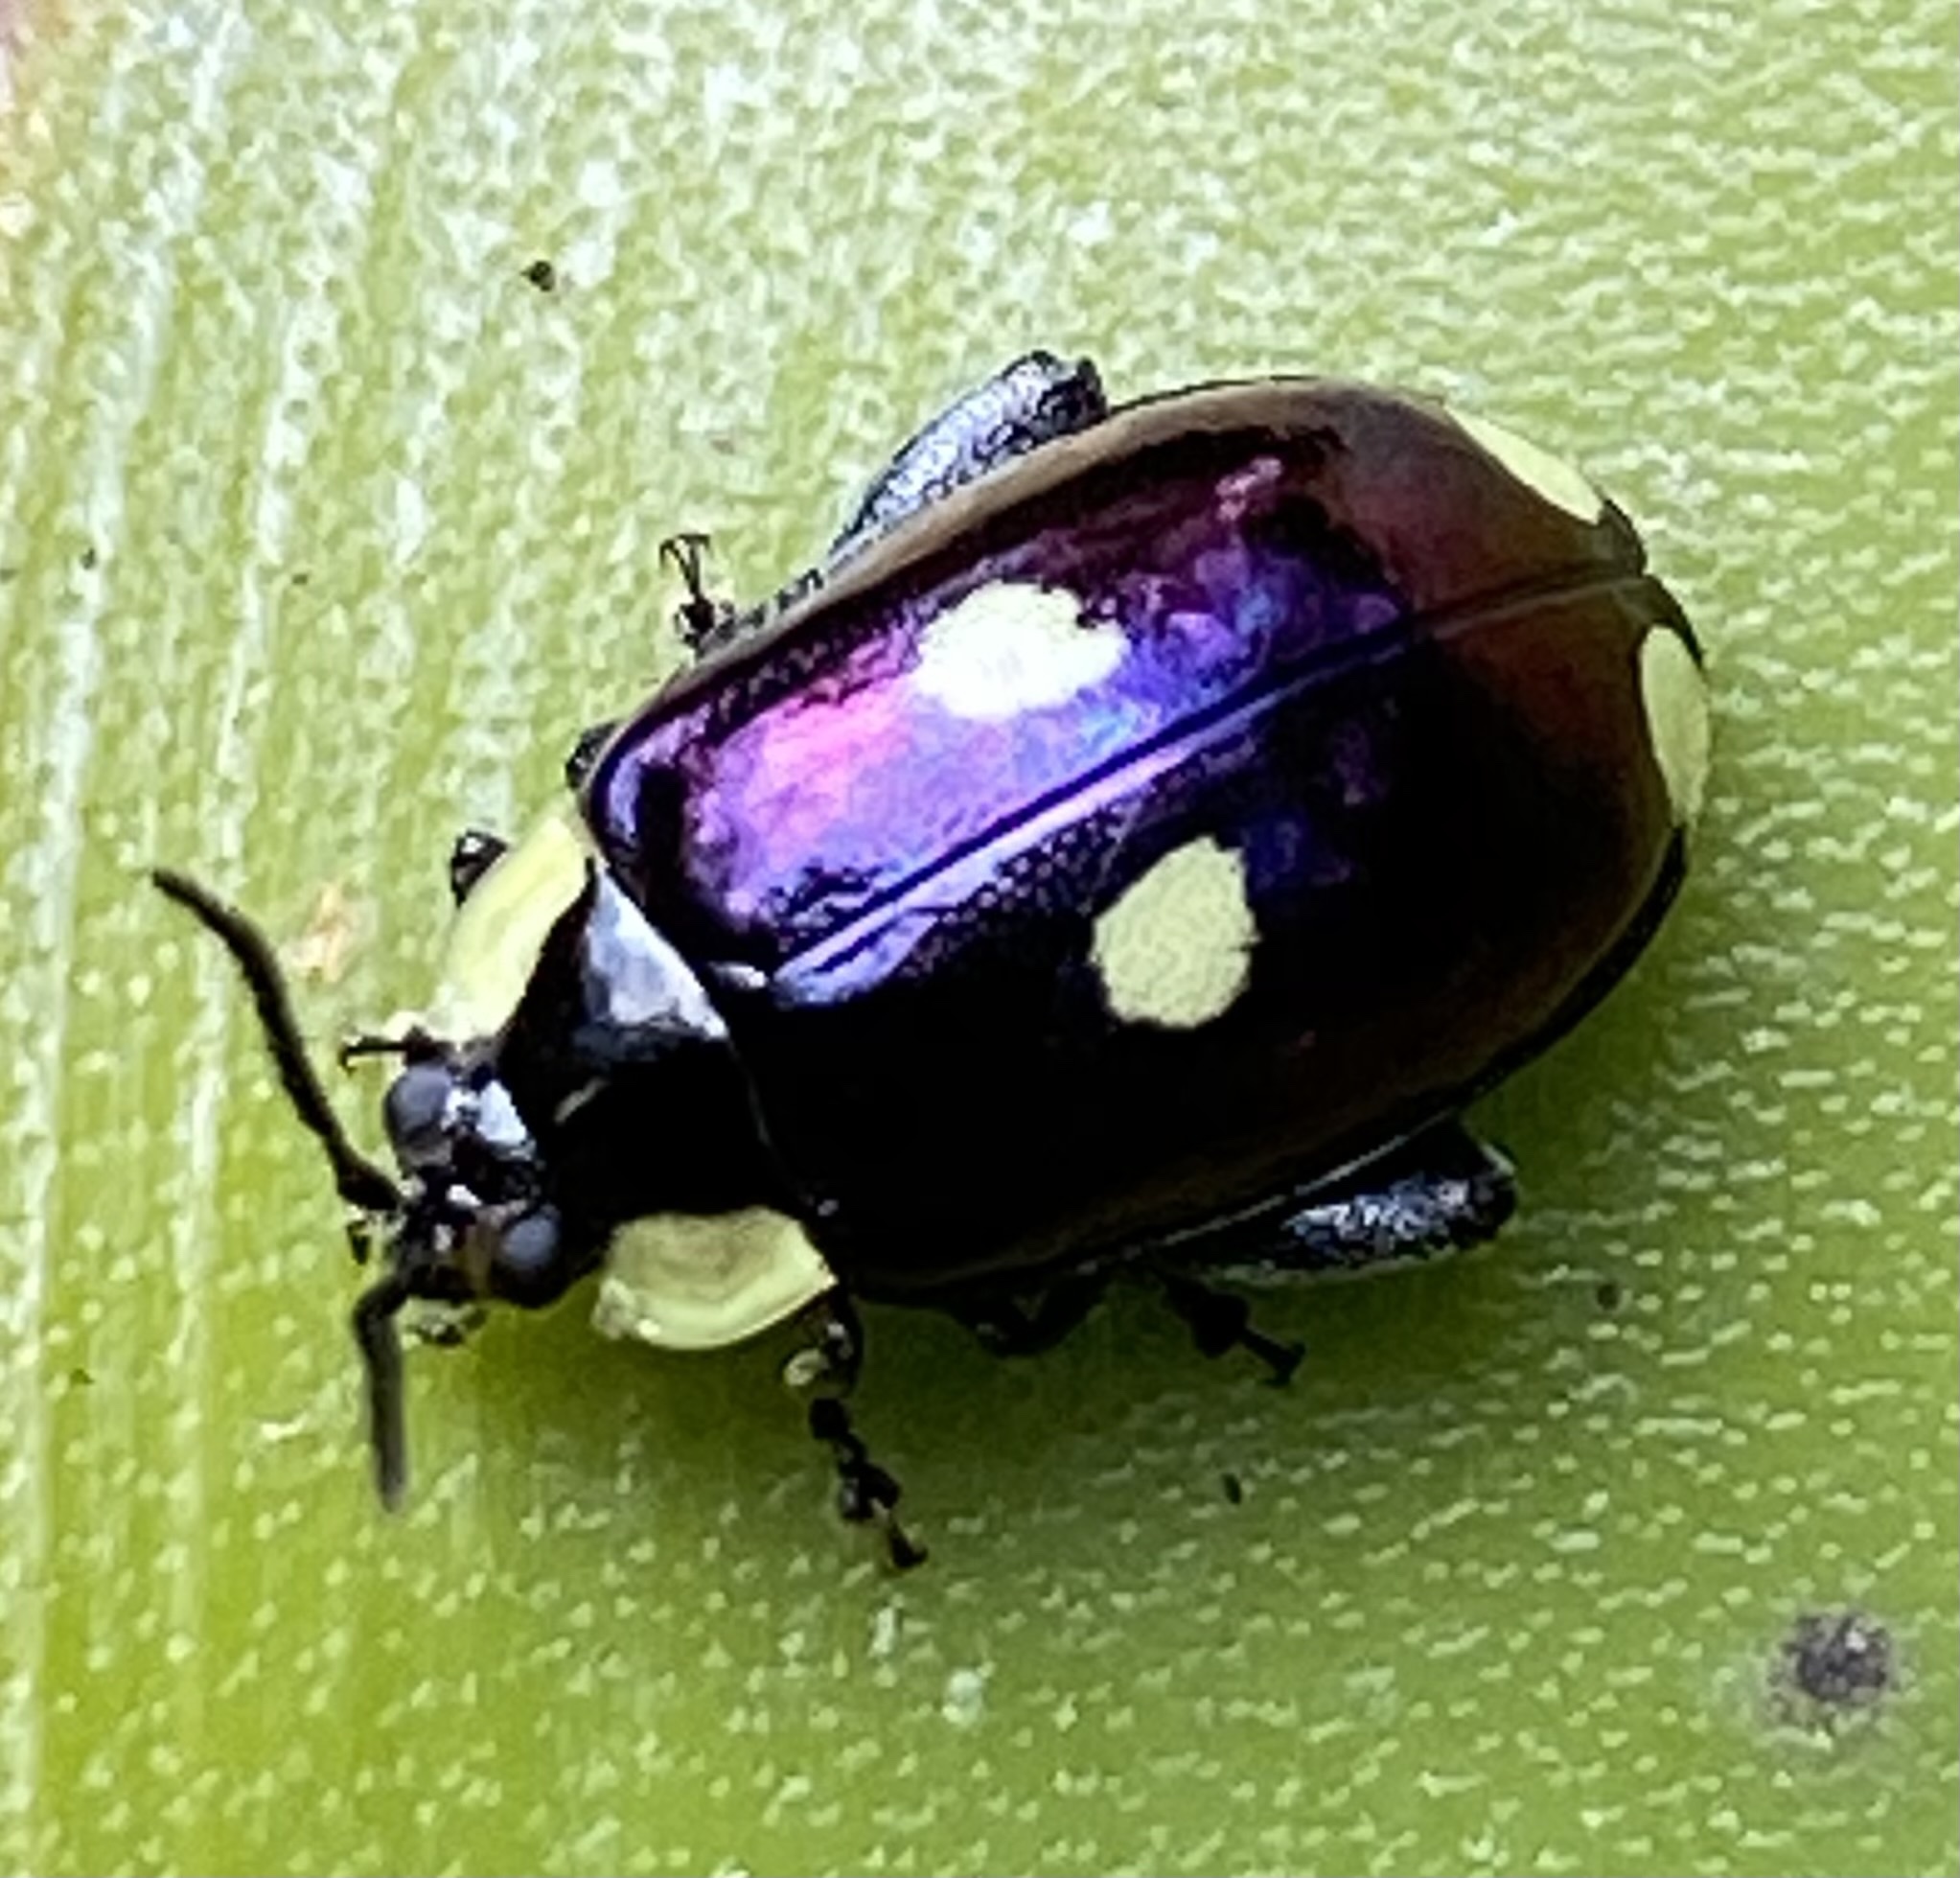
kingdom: Animalia
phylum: Arthropoda
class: Insecta
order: Coleoptera
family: Chrysomelidae
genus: Alagoasa
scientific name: Alagoasa
